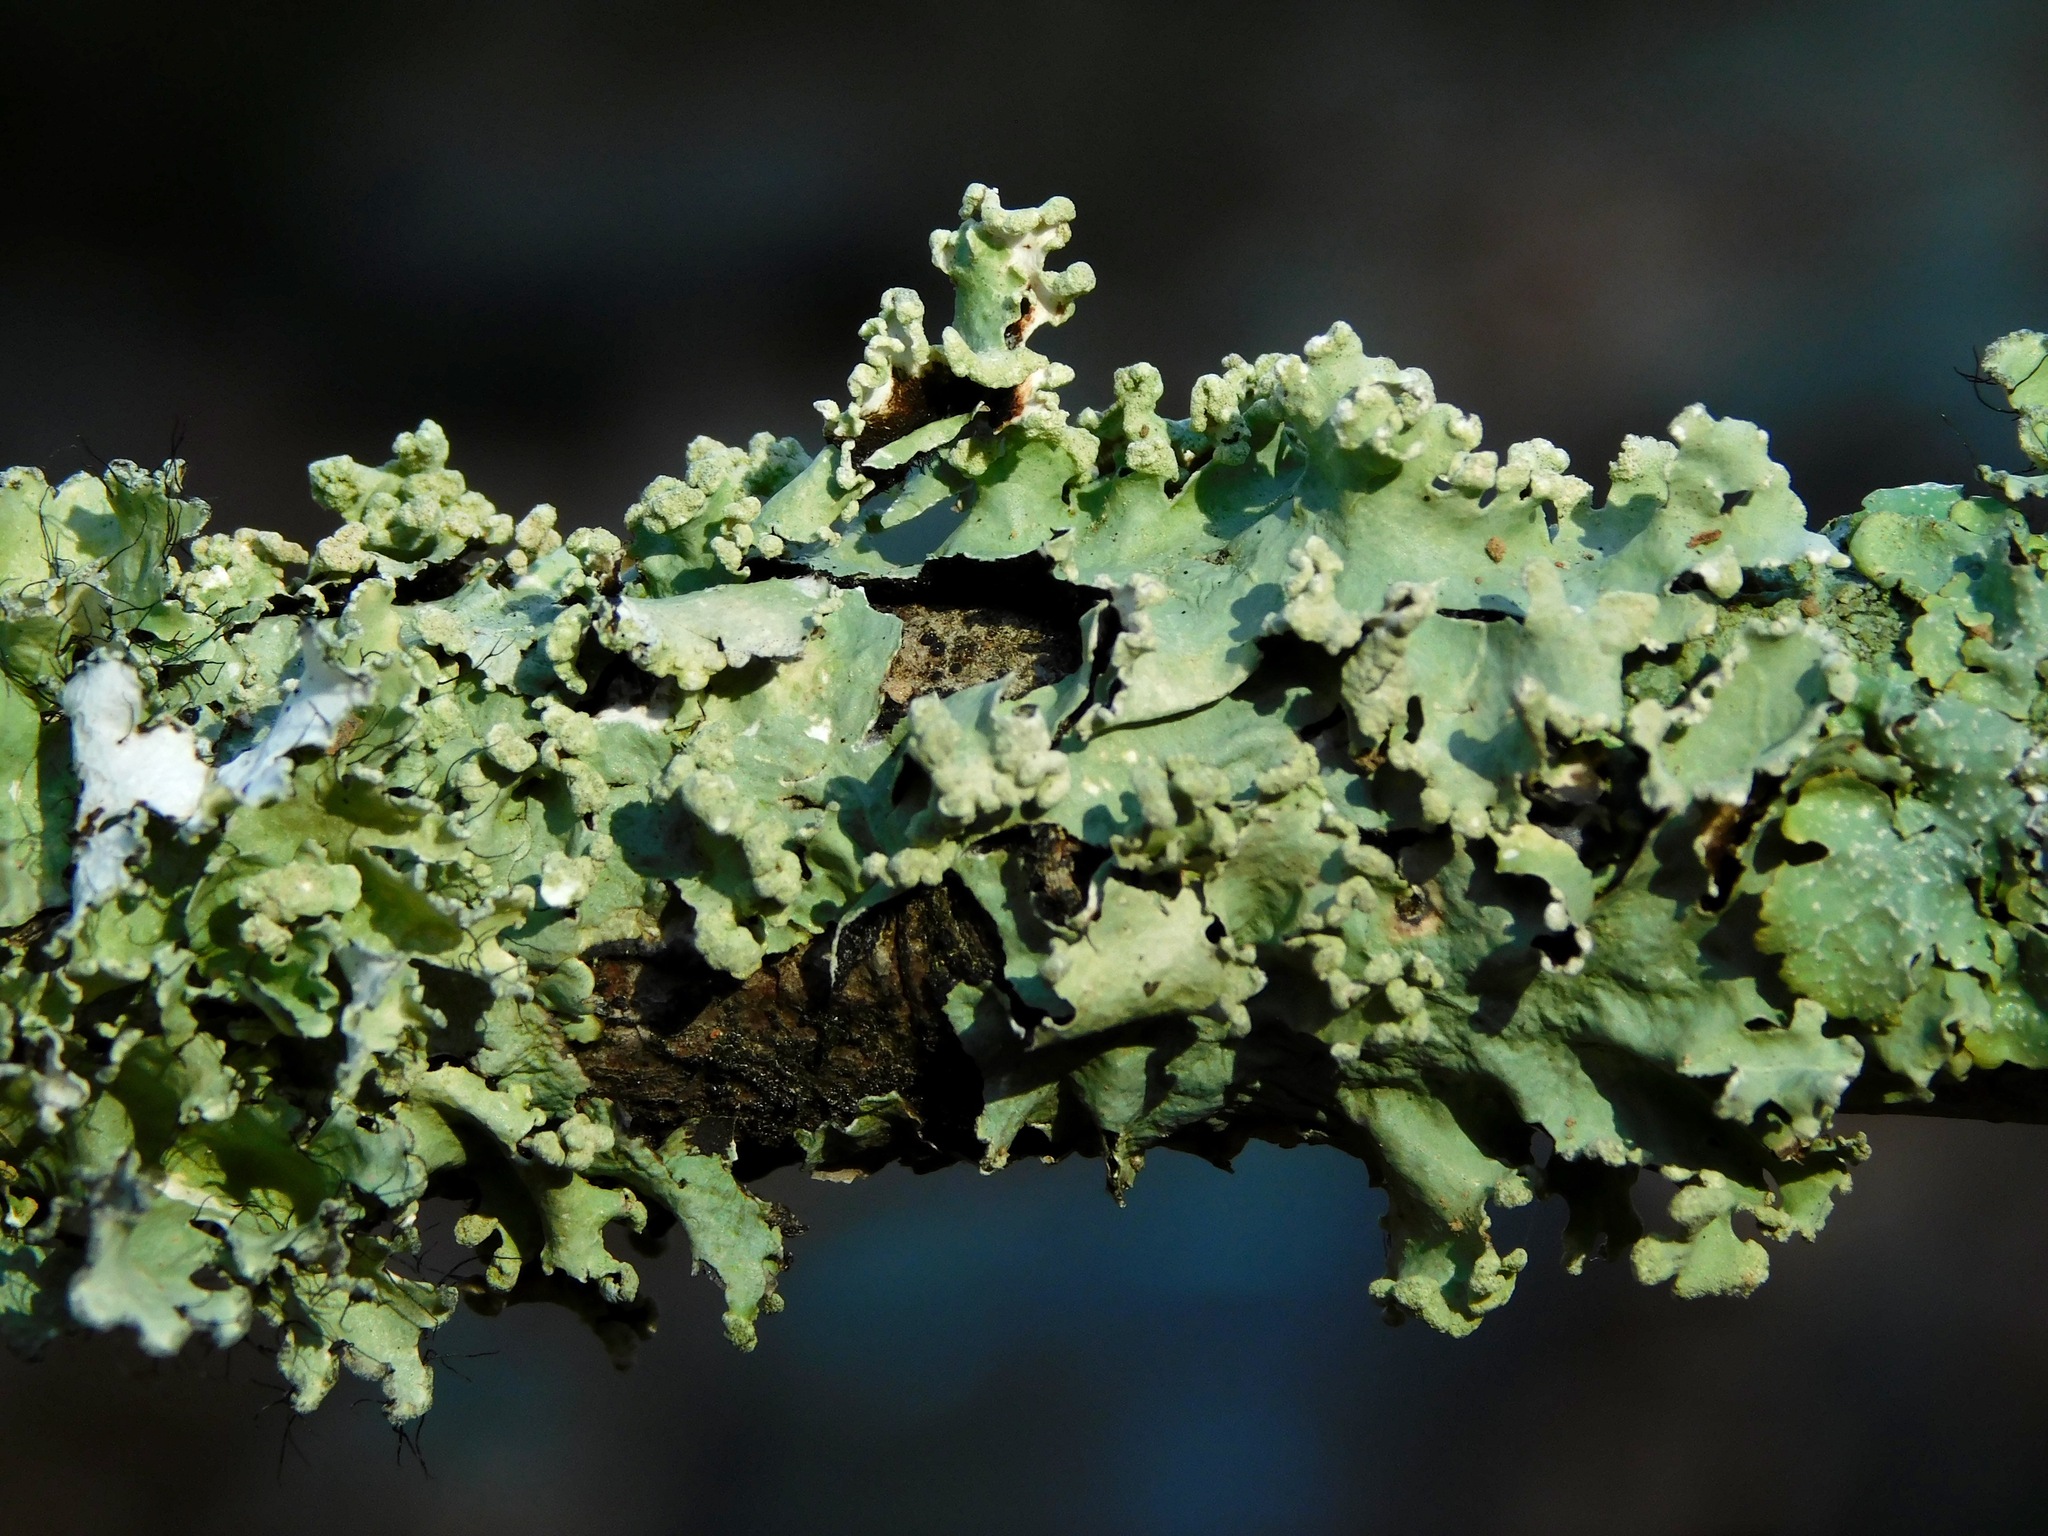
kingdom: Fungi
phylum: Ascomycota
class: Lecanoromycetes
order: Lecanorales
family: Parmeliaceae
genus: Parmotrema
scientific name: Parmotrema reticulatum
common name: Black sheet lichen
